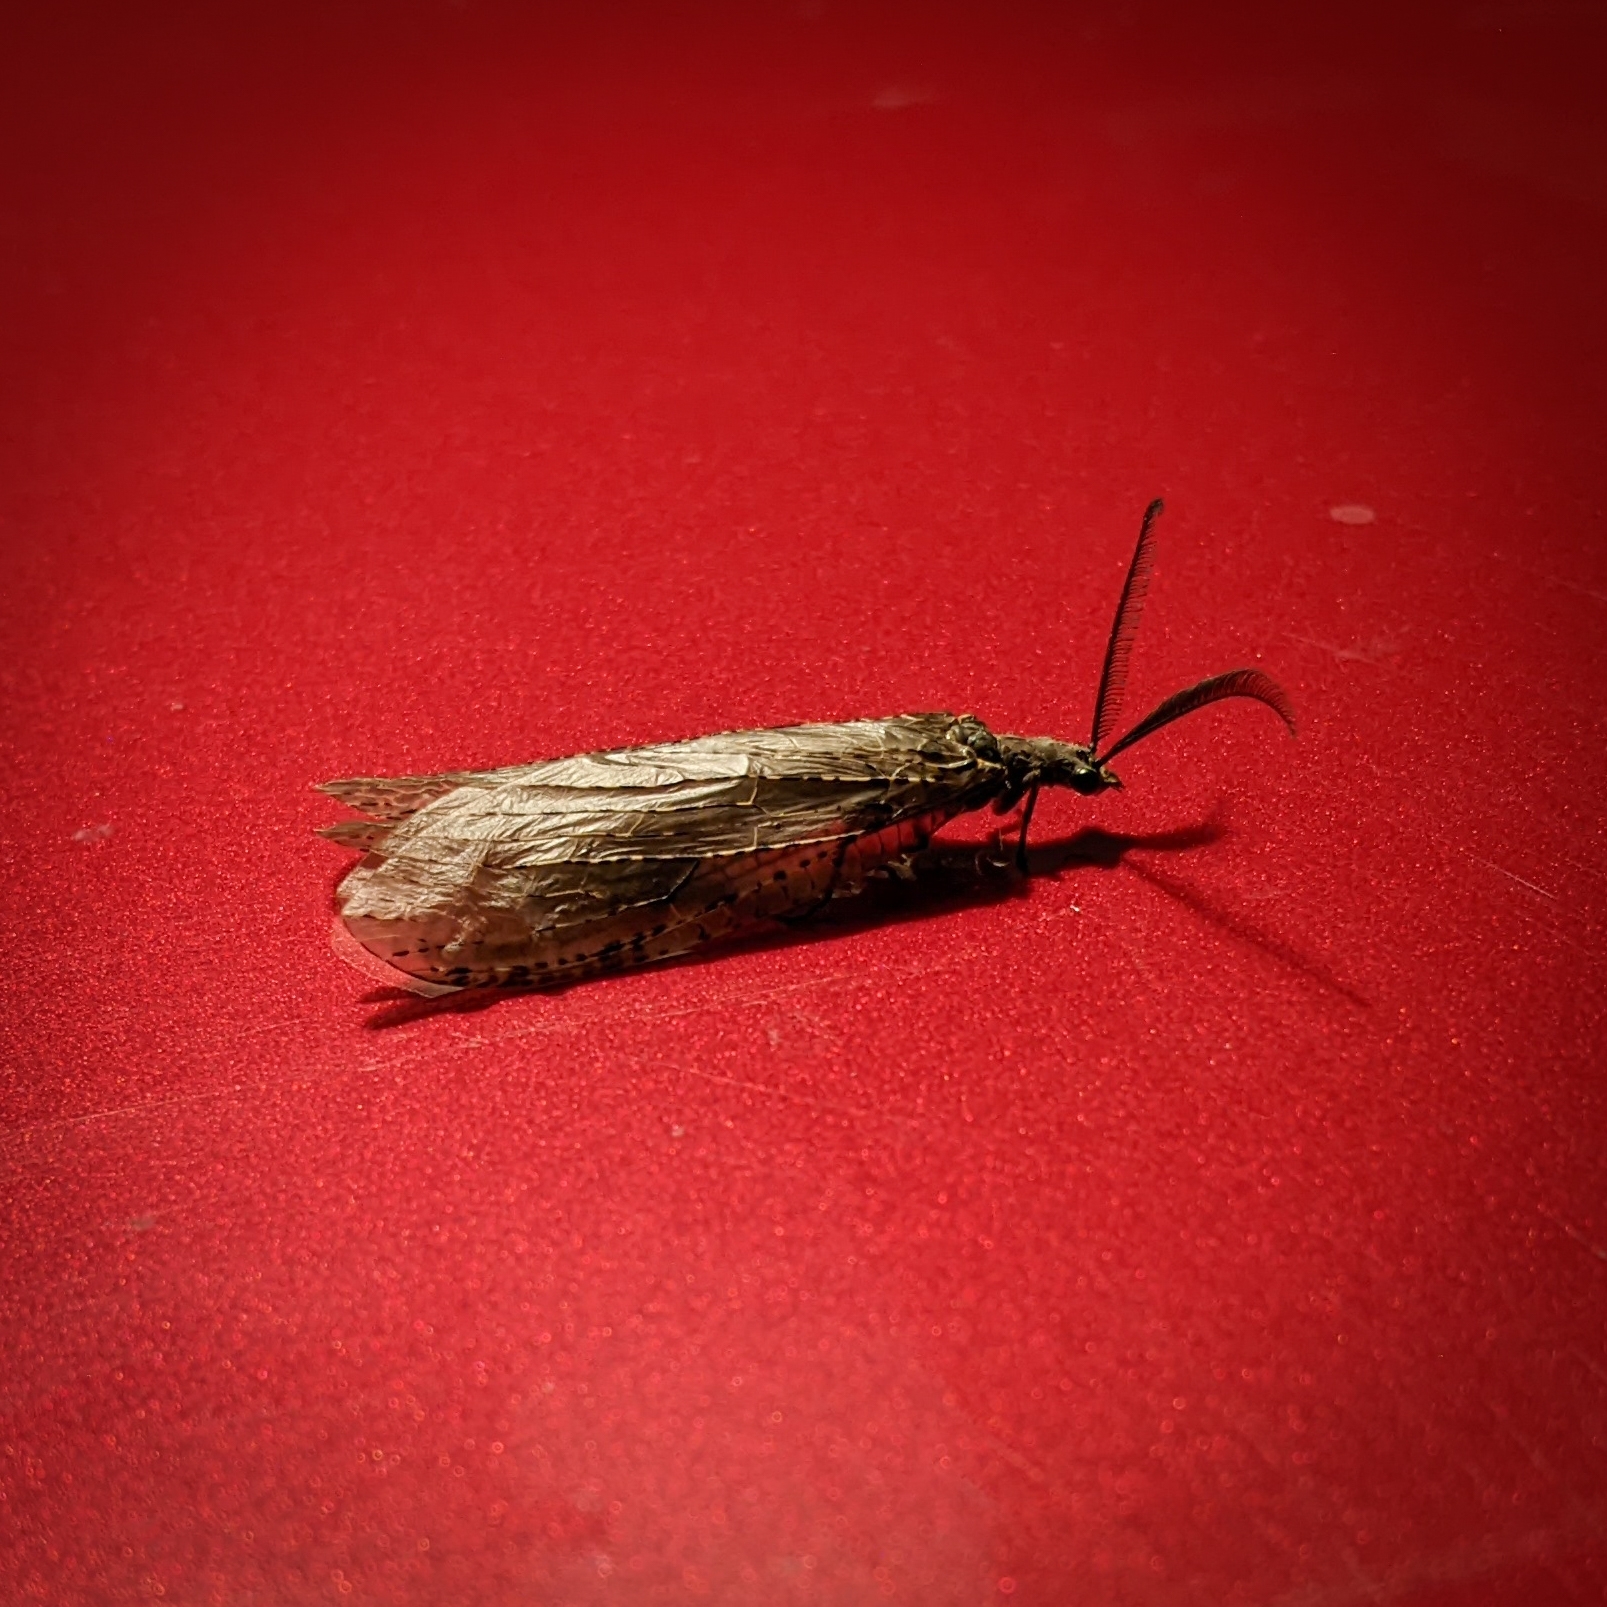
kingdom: Animalia
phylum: Arthropoda
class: Insecta
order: Megaloptera
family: Corydalidae
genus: Chauliodes
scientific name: Chauliodes rastricornis
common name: Spring fishfly
